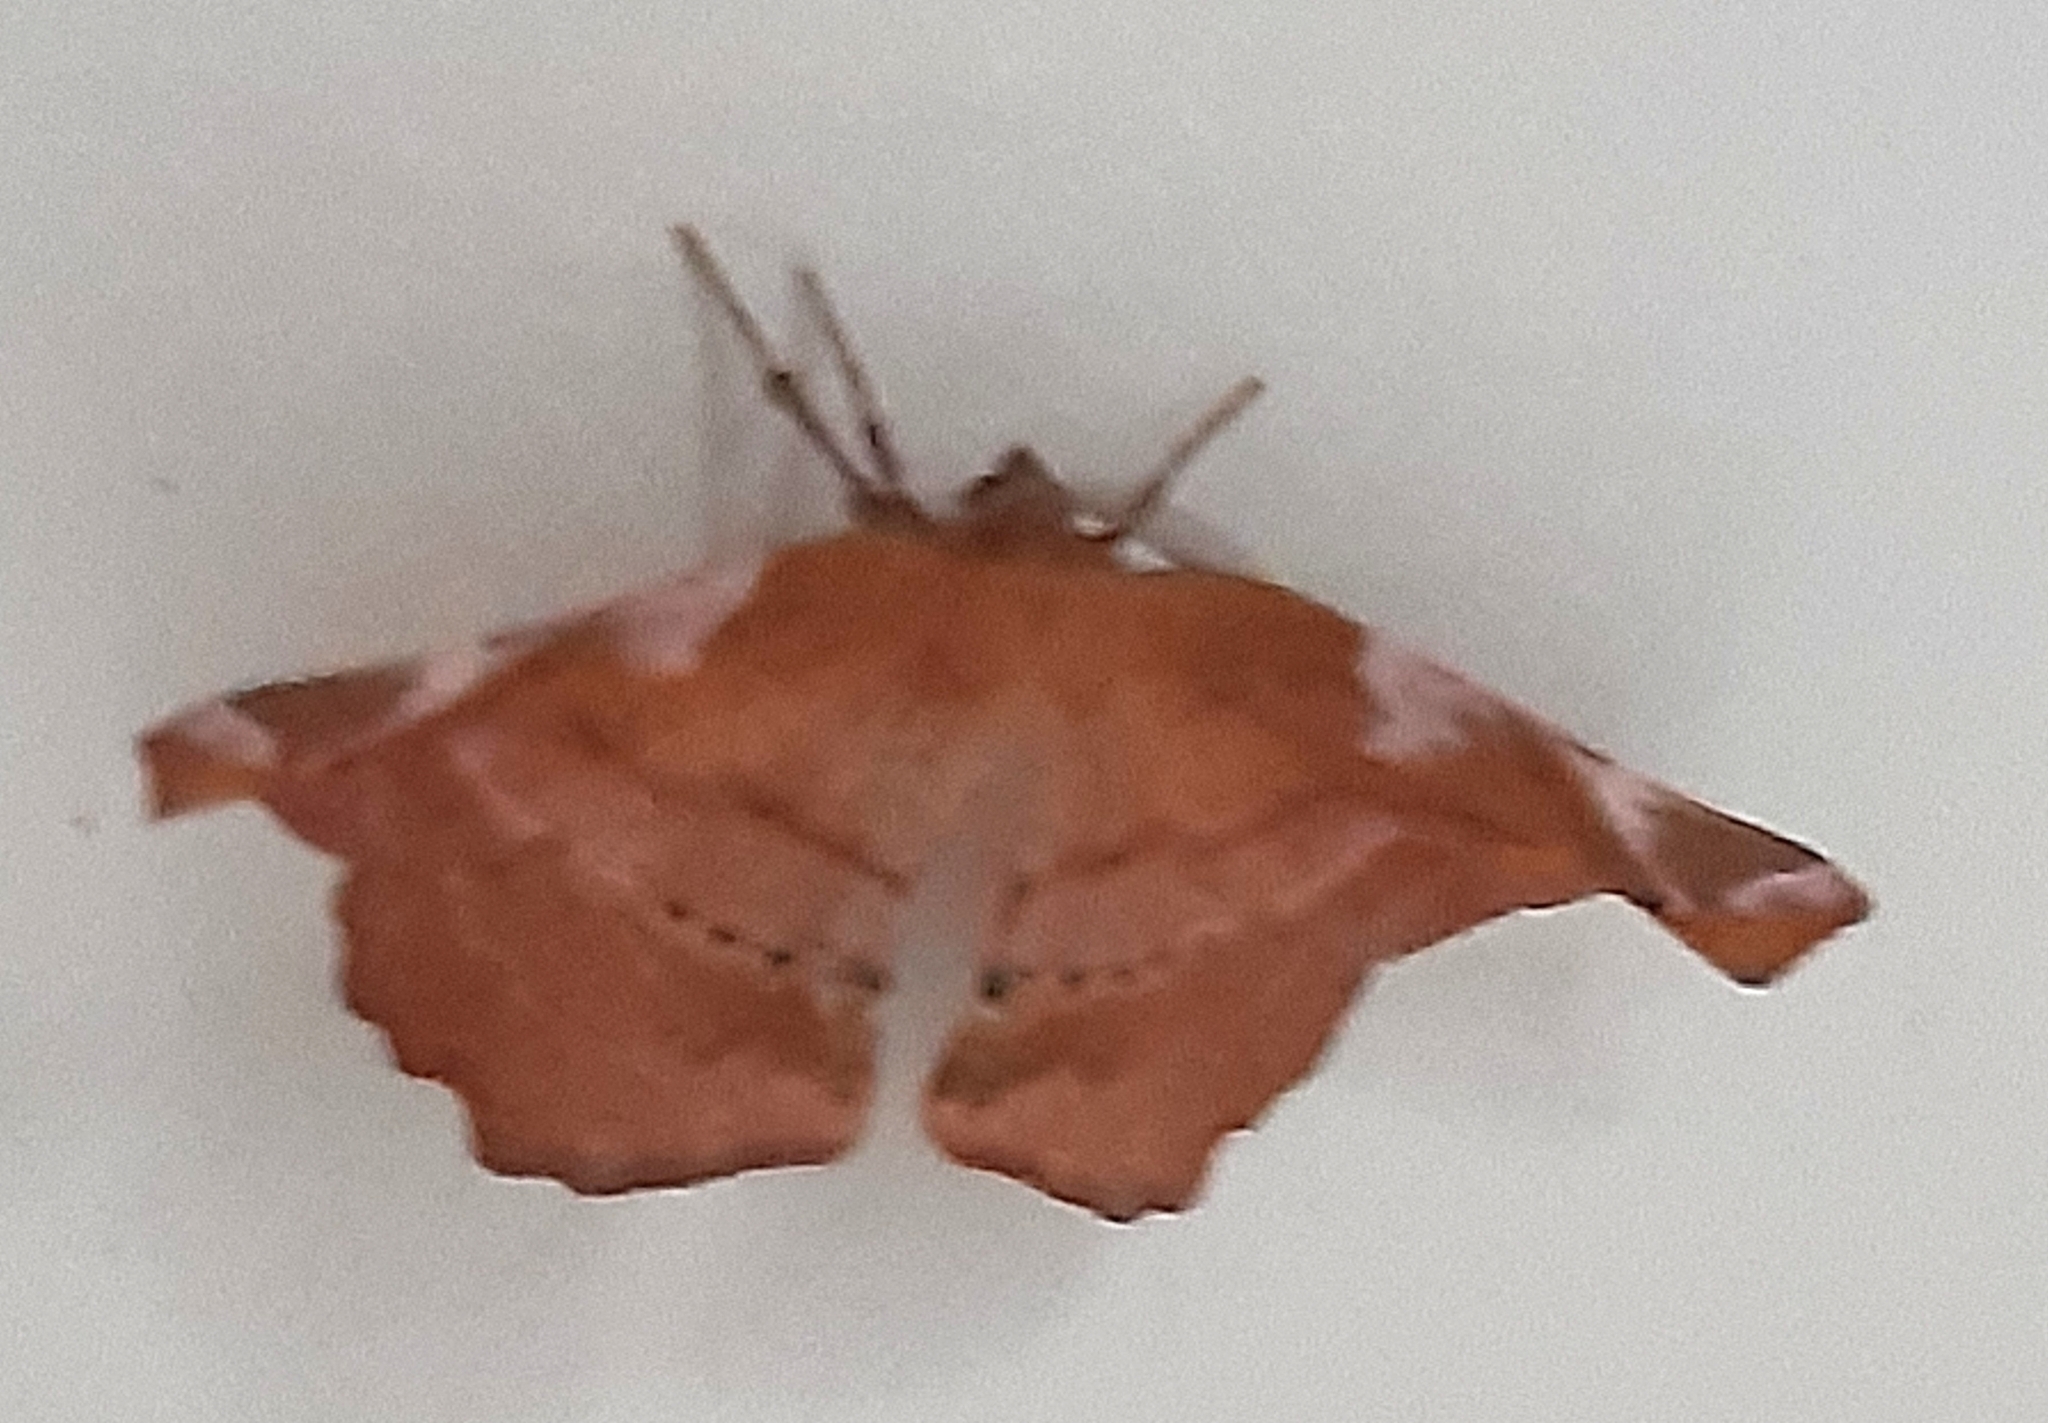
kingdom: Animalia
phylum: Arthropoda
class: Insecta
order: Lepidoptera
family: Geometridae
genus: Apeira
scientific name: Apeira syringaria
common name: Lilac beauty
